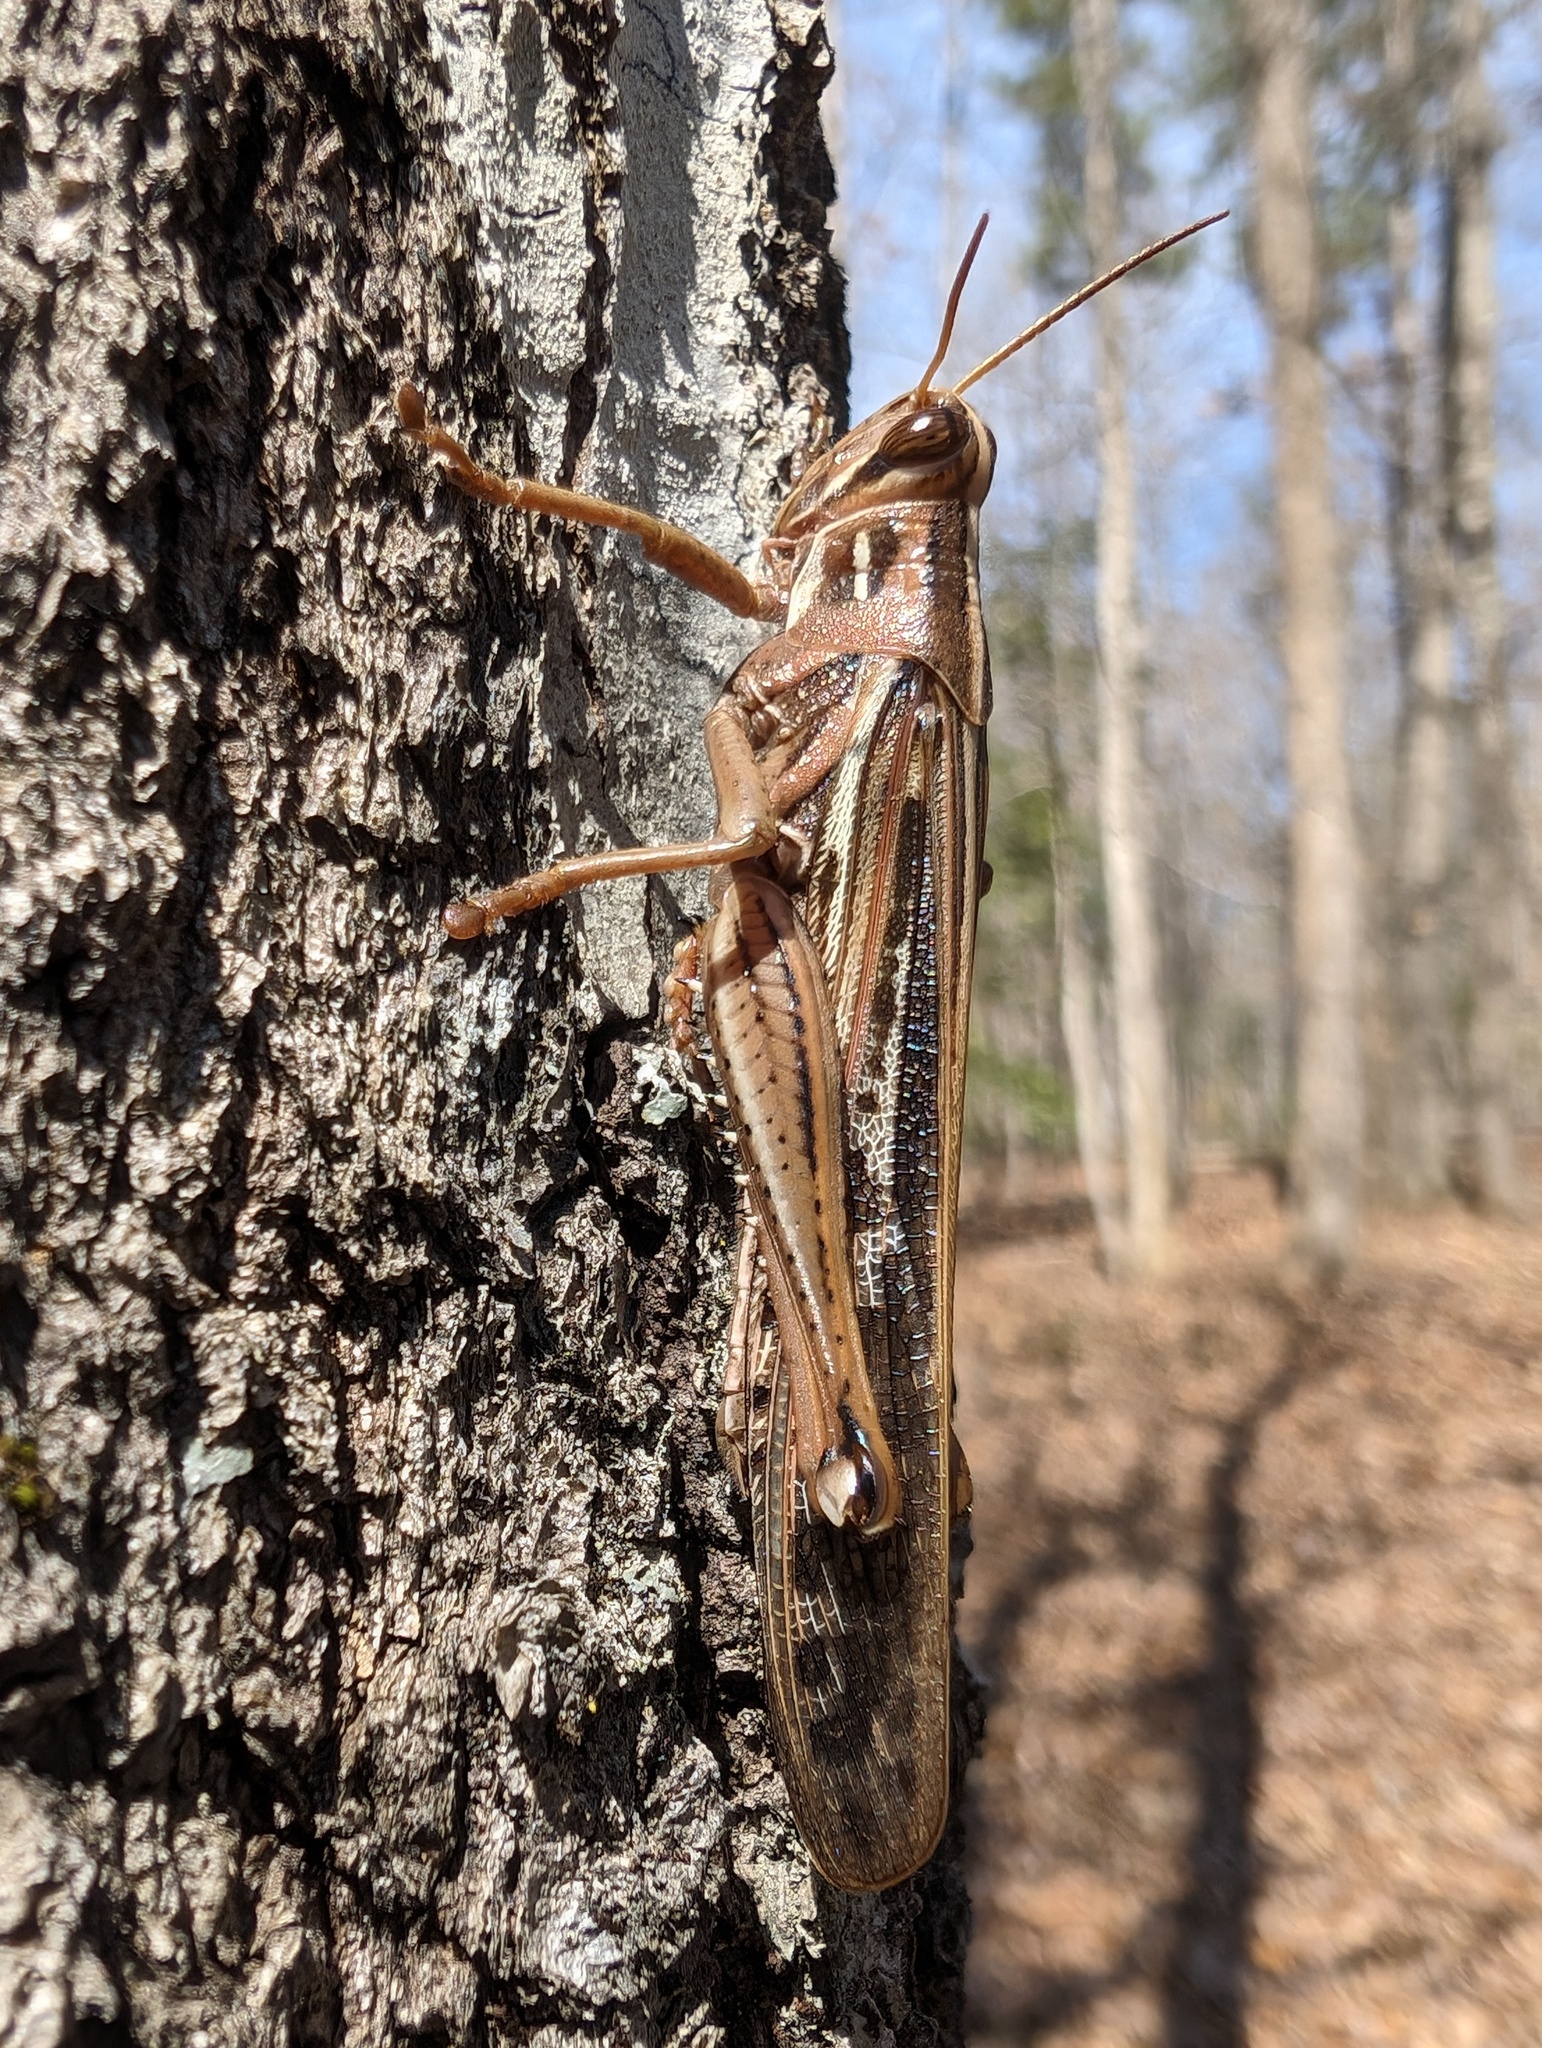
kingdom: Animalia
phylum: Arthropoda
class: Insecta
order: Orthoptera
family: Acrididae
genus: Schistocerca
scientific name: Schistocerca americana
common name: American bird locust
